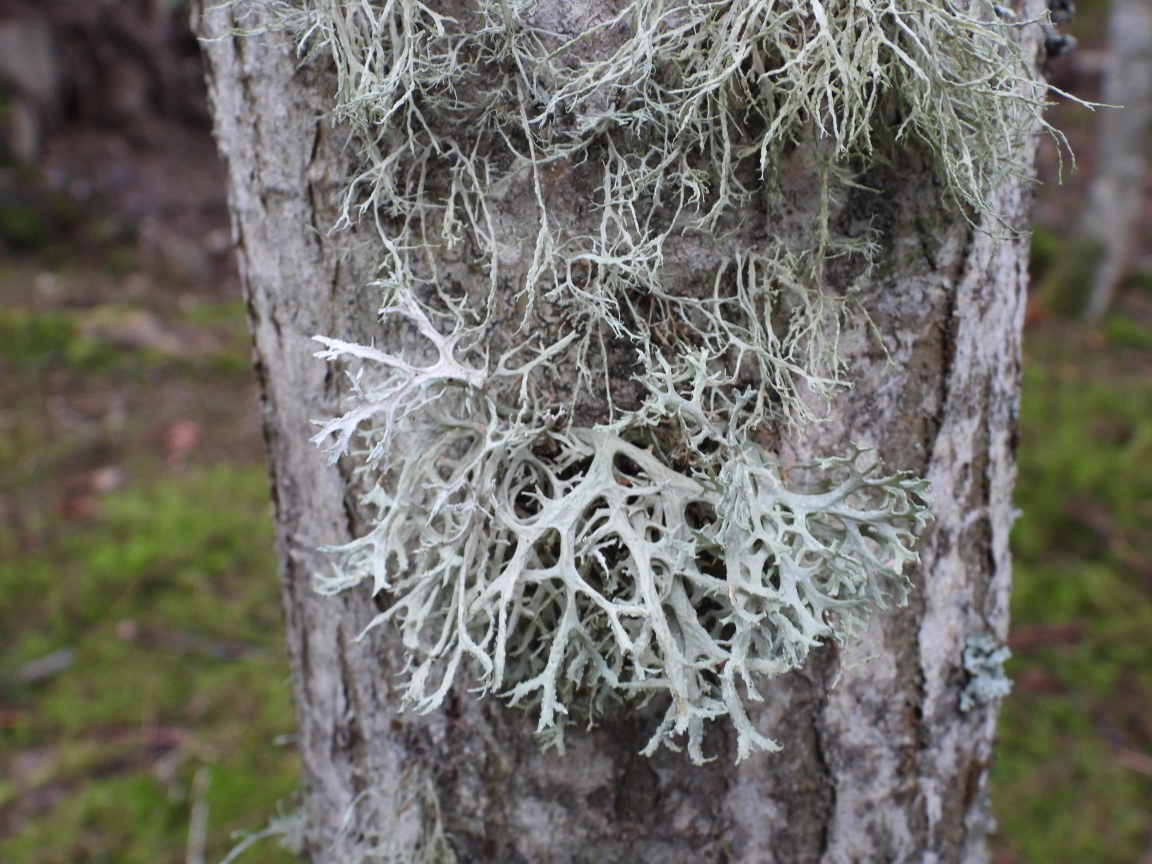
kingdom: Fungi
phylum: Ascomycota
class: Lecanoromycetes
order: Lecanorales
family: Parmeliaceae
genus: Evernia
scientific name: Evernia prunastri
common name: Oak moss
